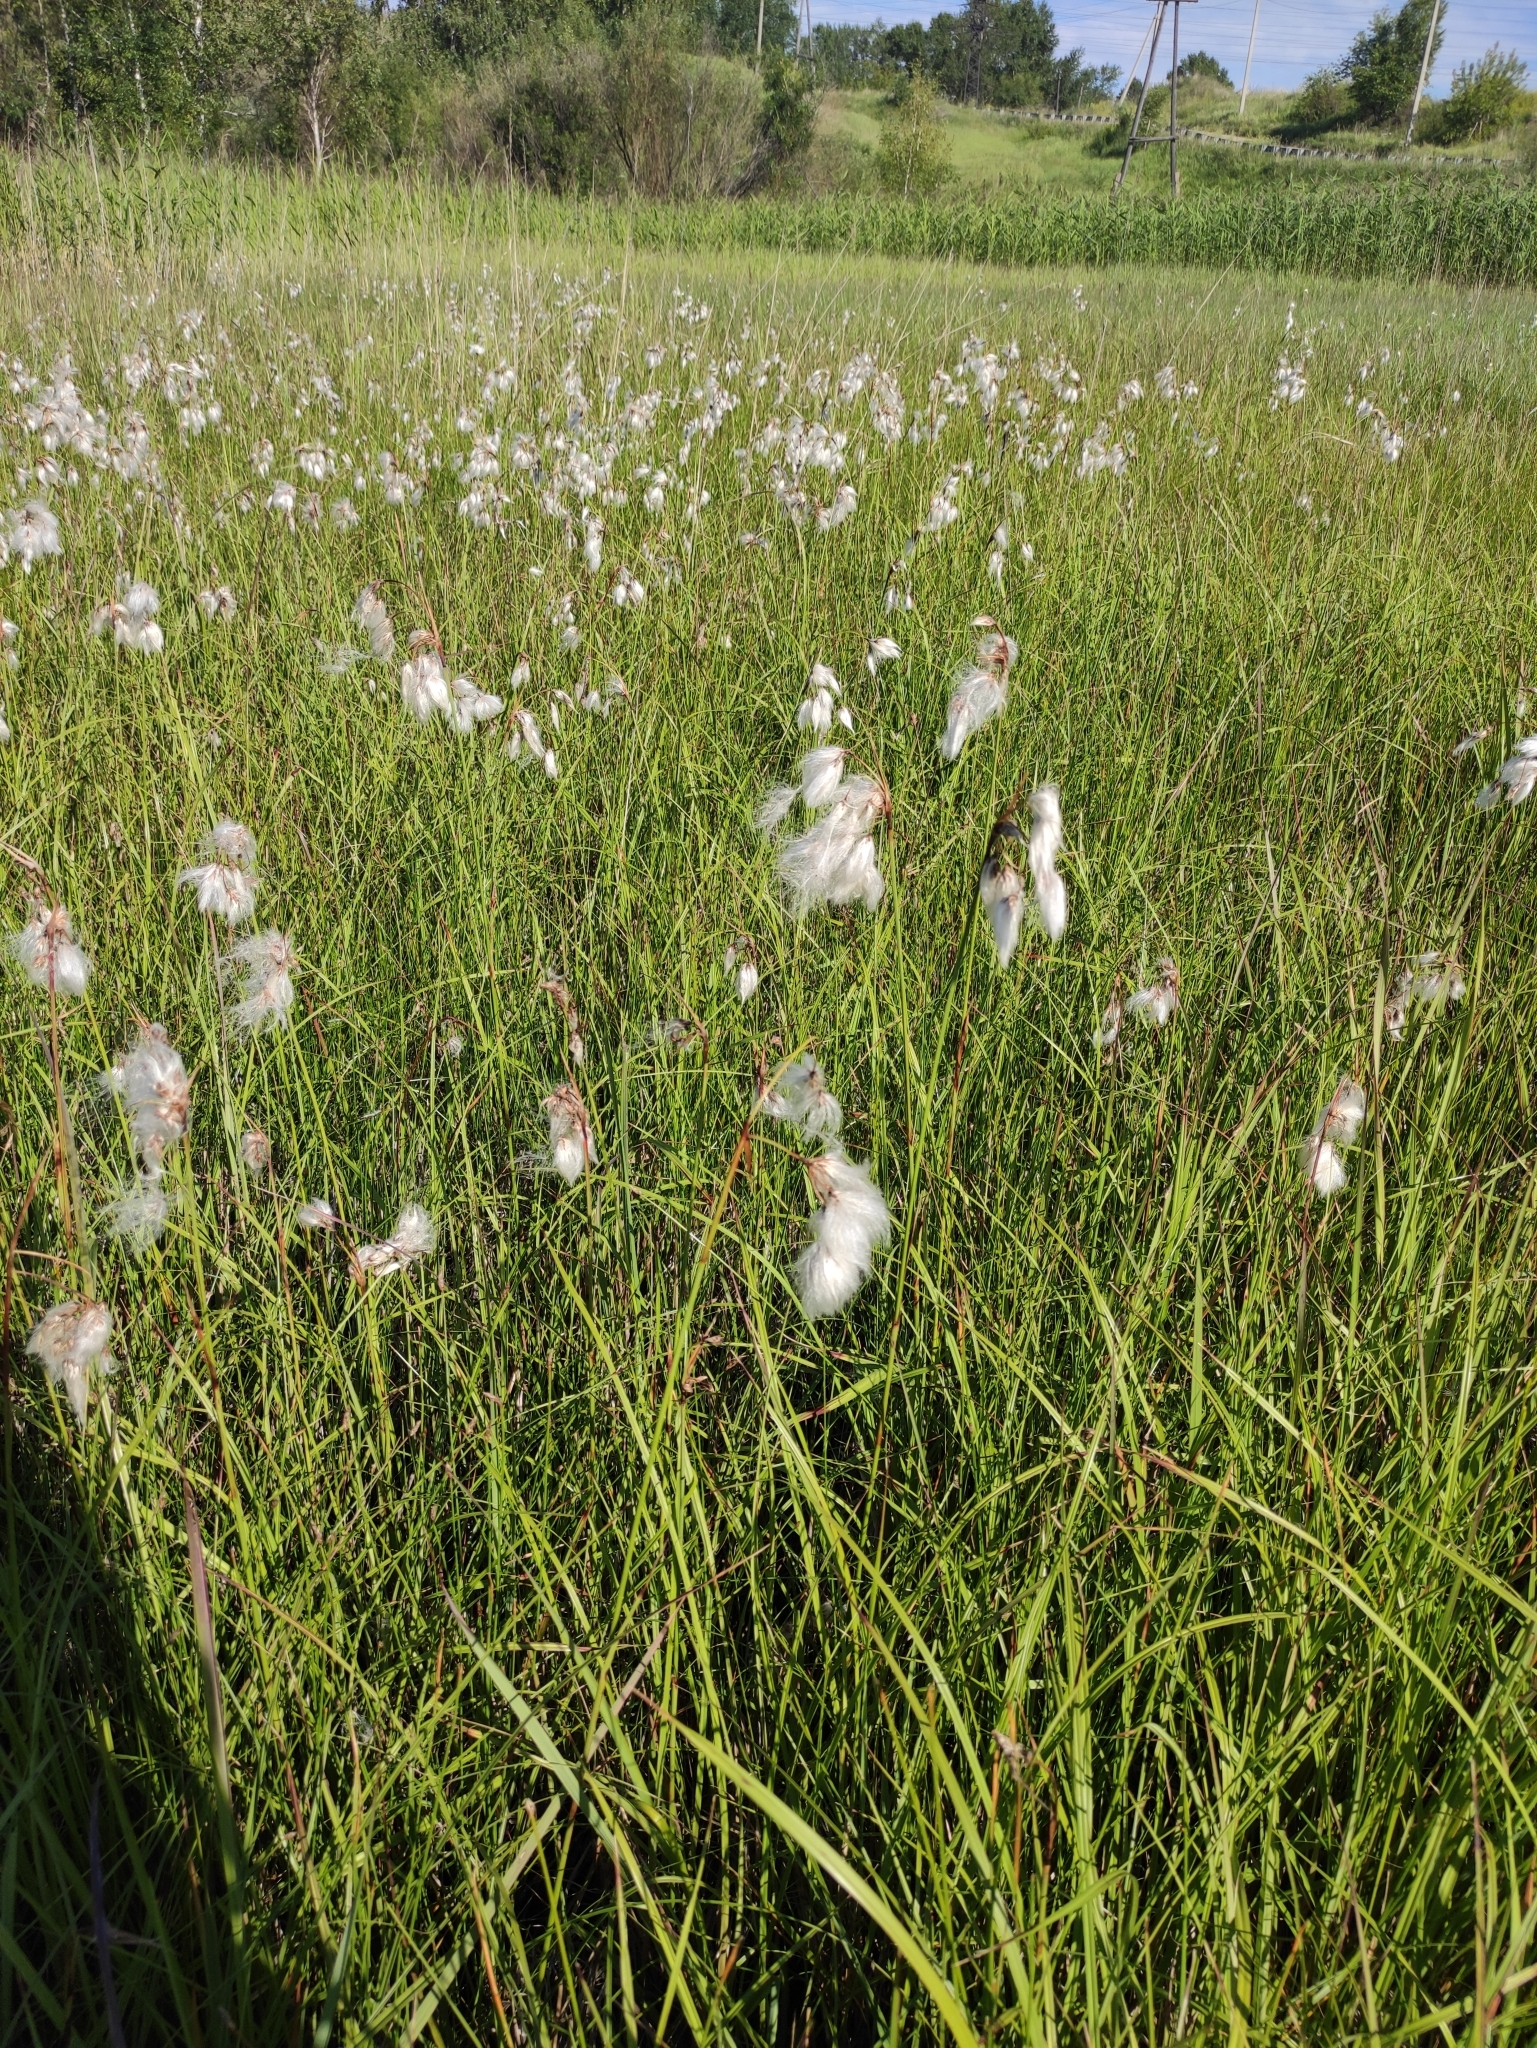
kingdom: Plantae
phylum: Tracheophyta
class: Liliopsida
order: Poales
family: Cyperaceae
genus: Eriophorum
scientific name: Eriophorum angustifolium
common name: Common cottongrass
